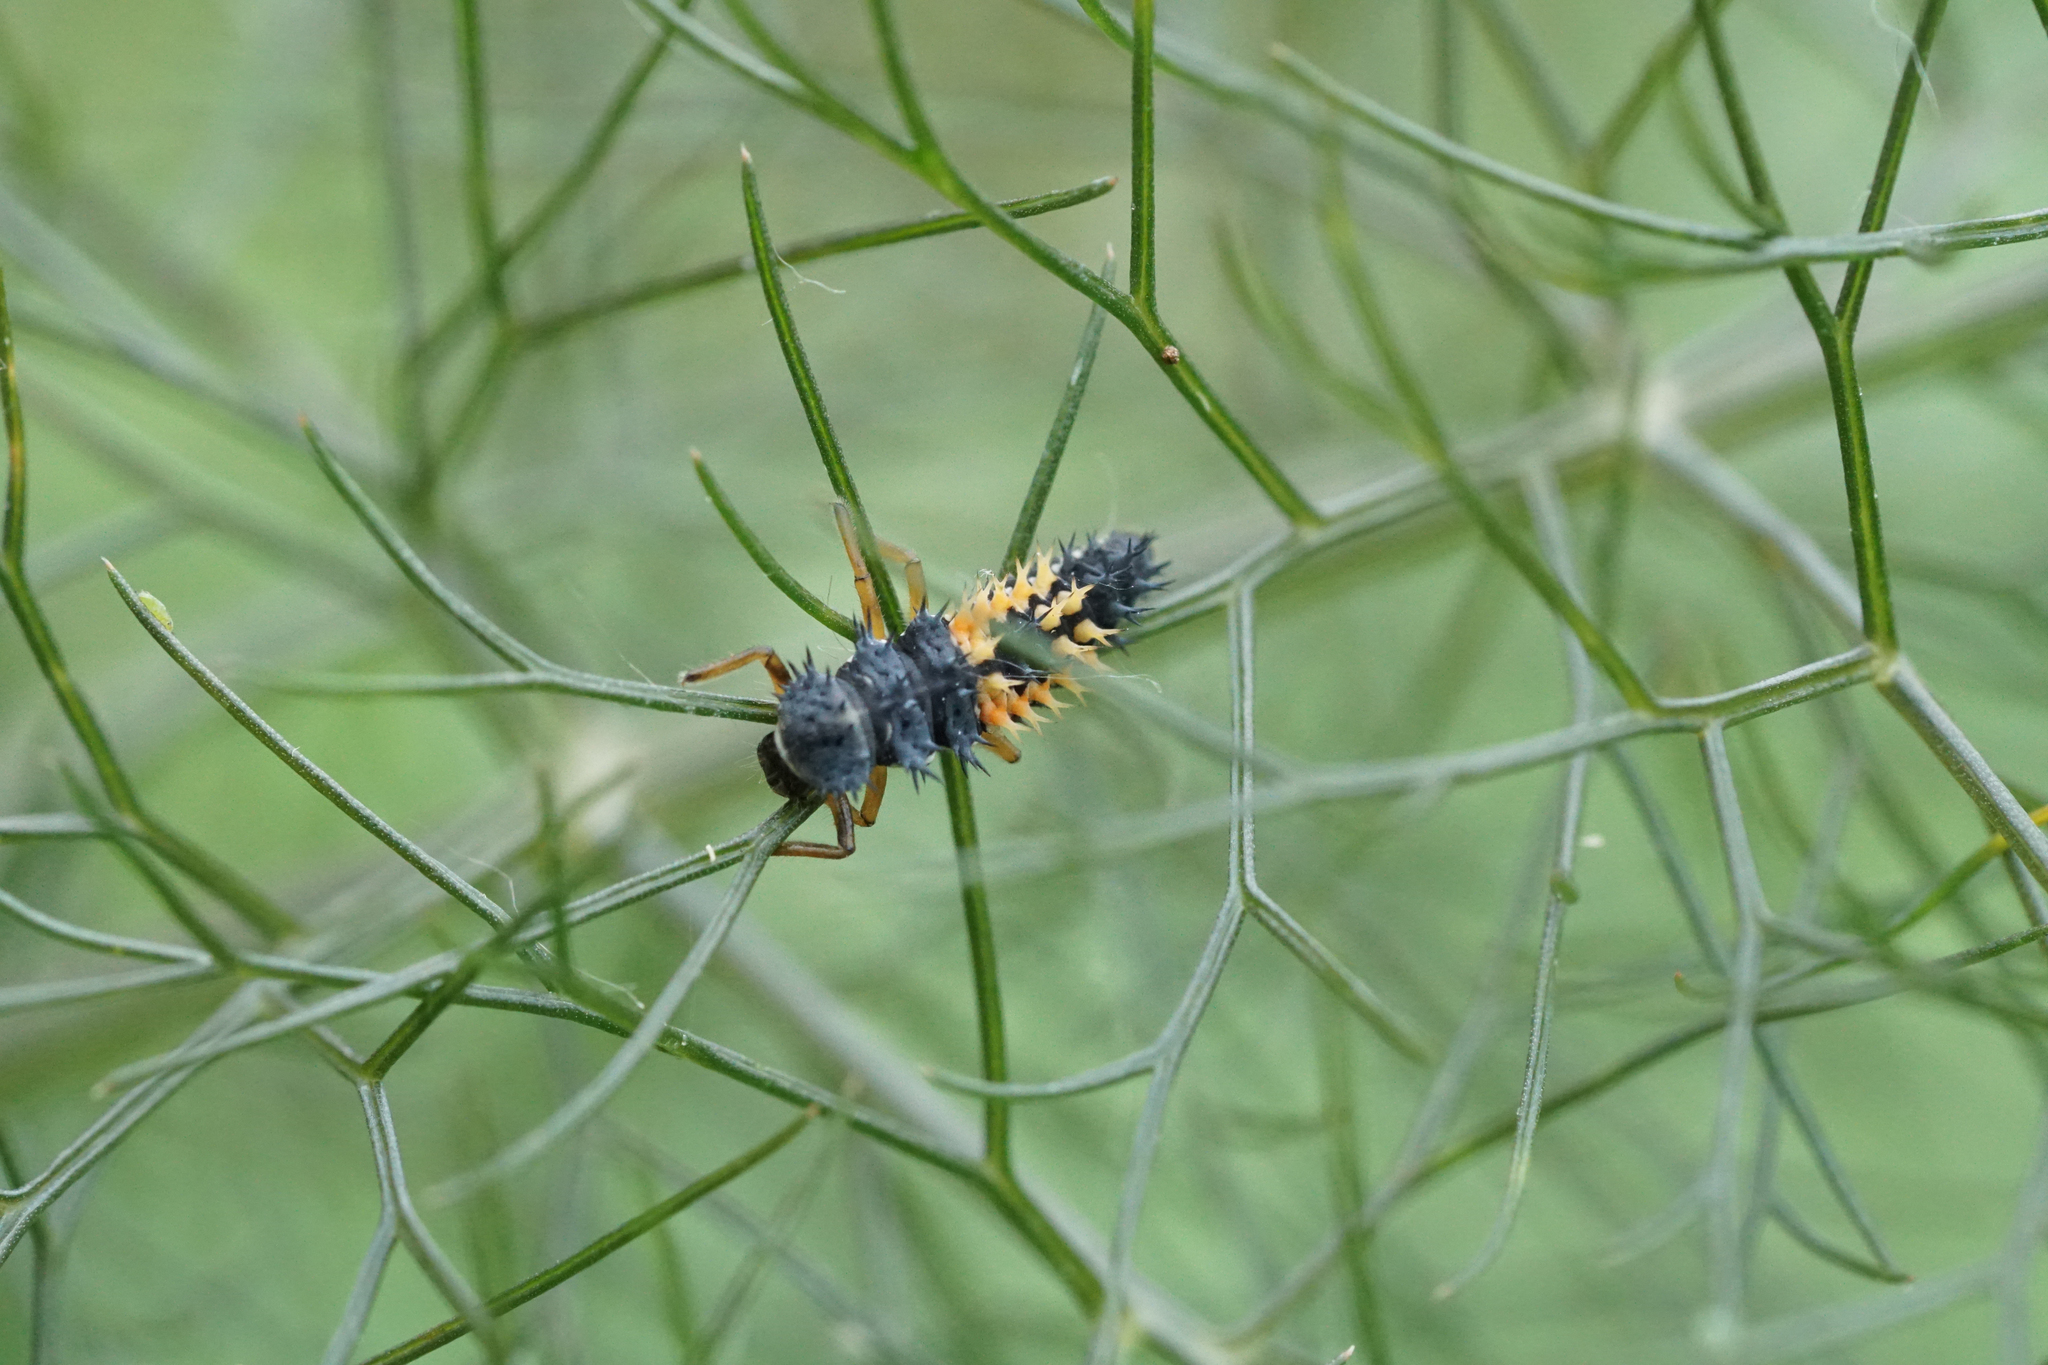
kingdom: Animalia
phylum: Arthropoda
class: Insecta
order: Coleoptera
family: Coccinellidae
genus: Harmonia
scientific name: Harmonia axyridis
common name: Harlequin ladybird
